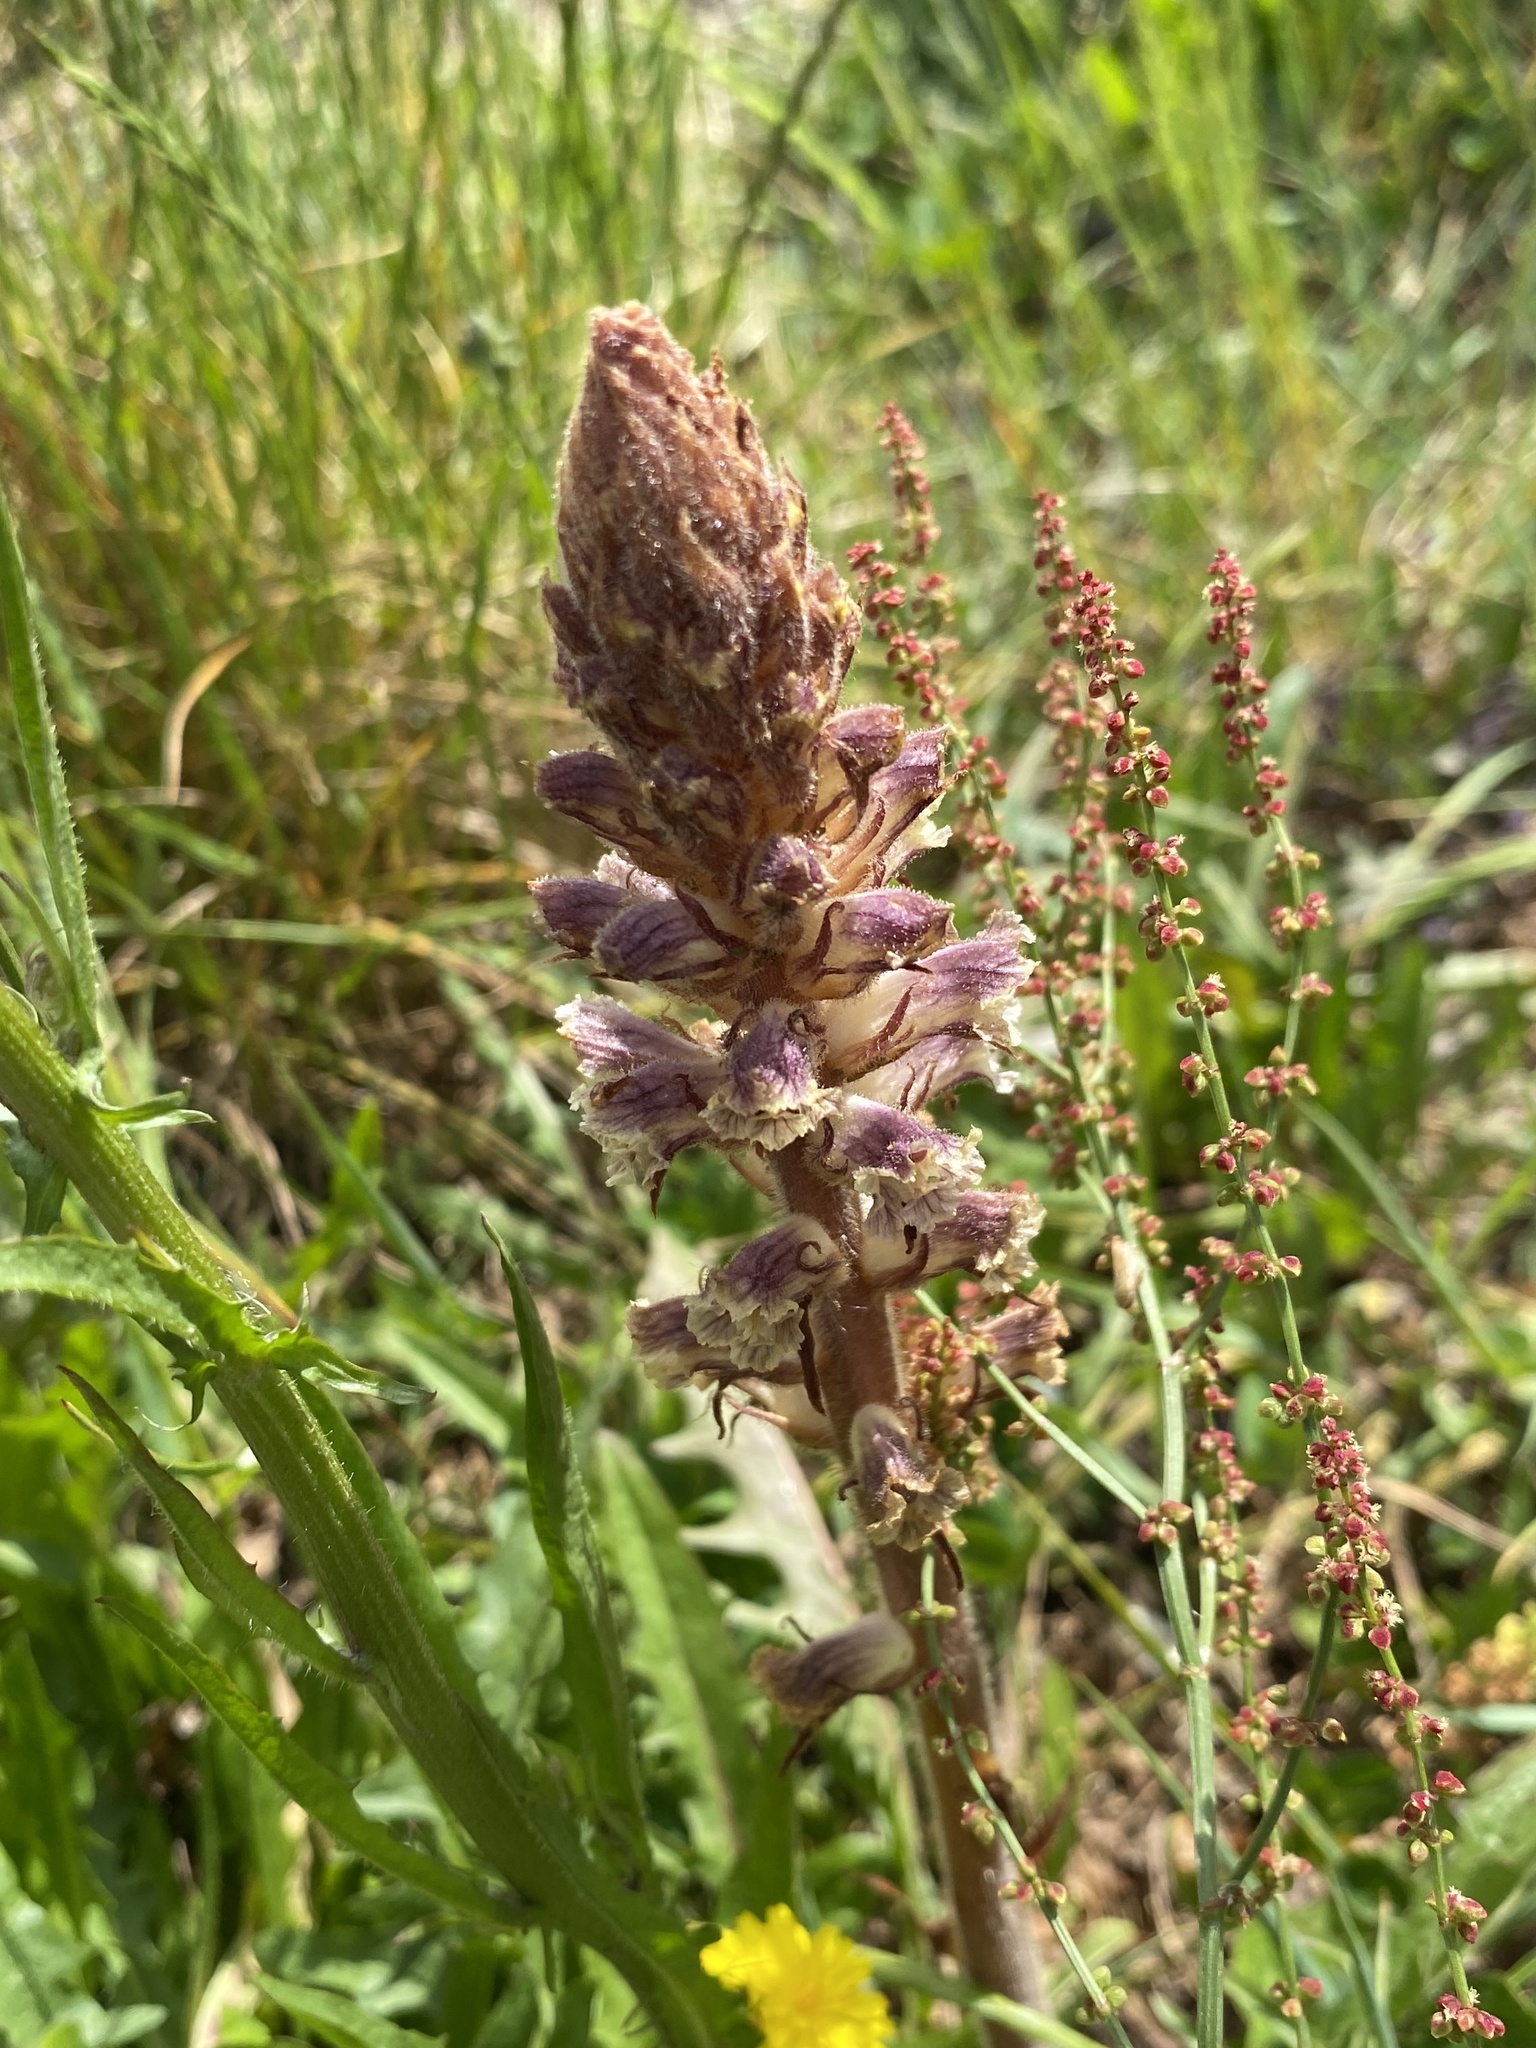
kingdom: Plantae
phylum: Tracheophyta
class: Magnoliopsida
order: Lamiales
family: Orobanchaceae
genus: Orobanche
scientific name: Orobanche minor
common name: Common broomrape
